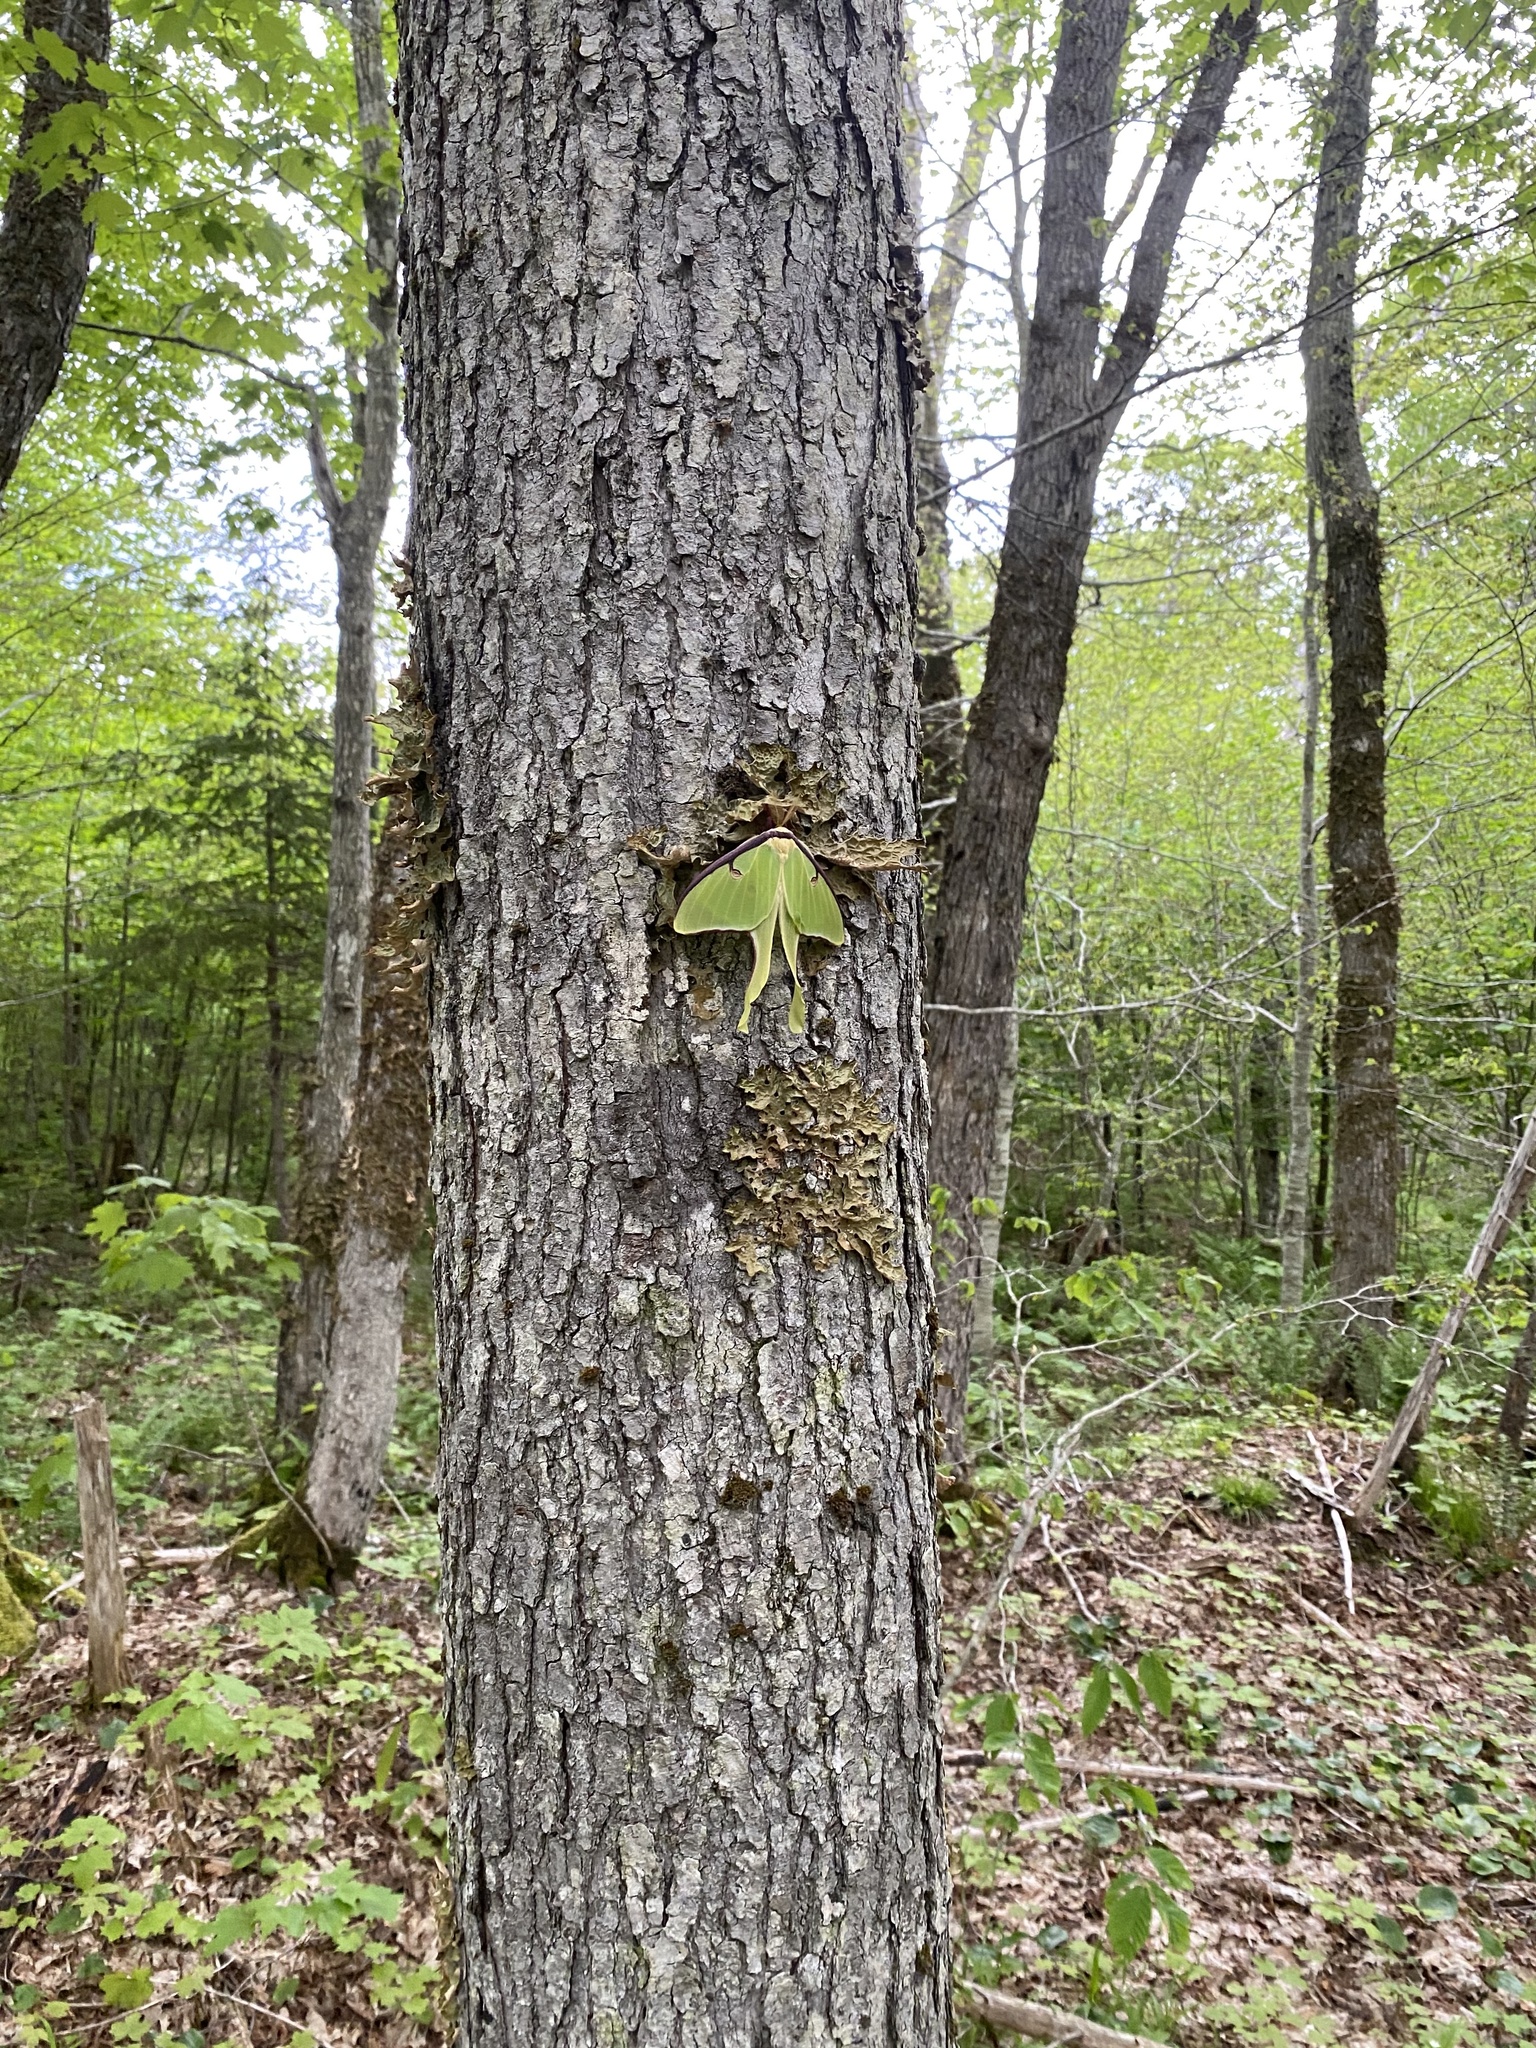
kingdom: Animalia
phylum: Arthropoda
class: Insecta
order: Lepidoptera
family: Saturniidae
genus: Actias
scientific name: Actias luna
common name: Luna moth
